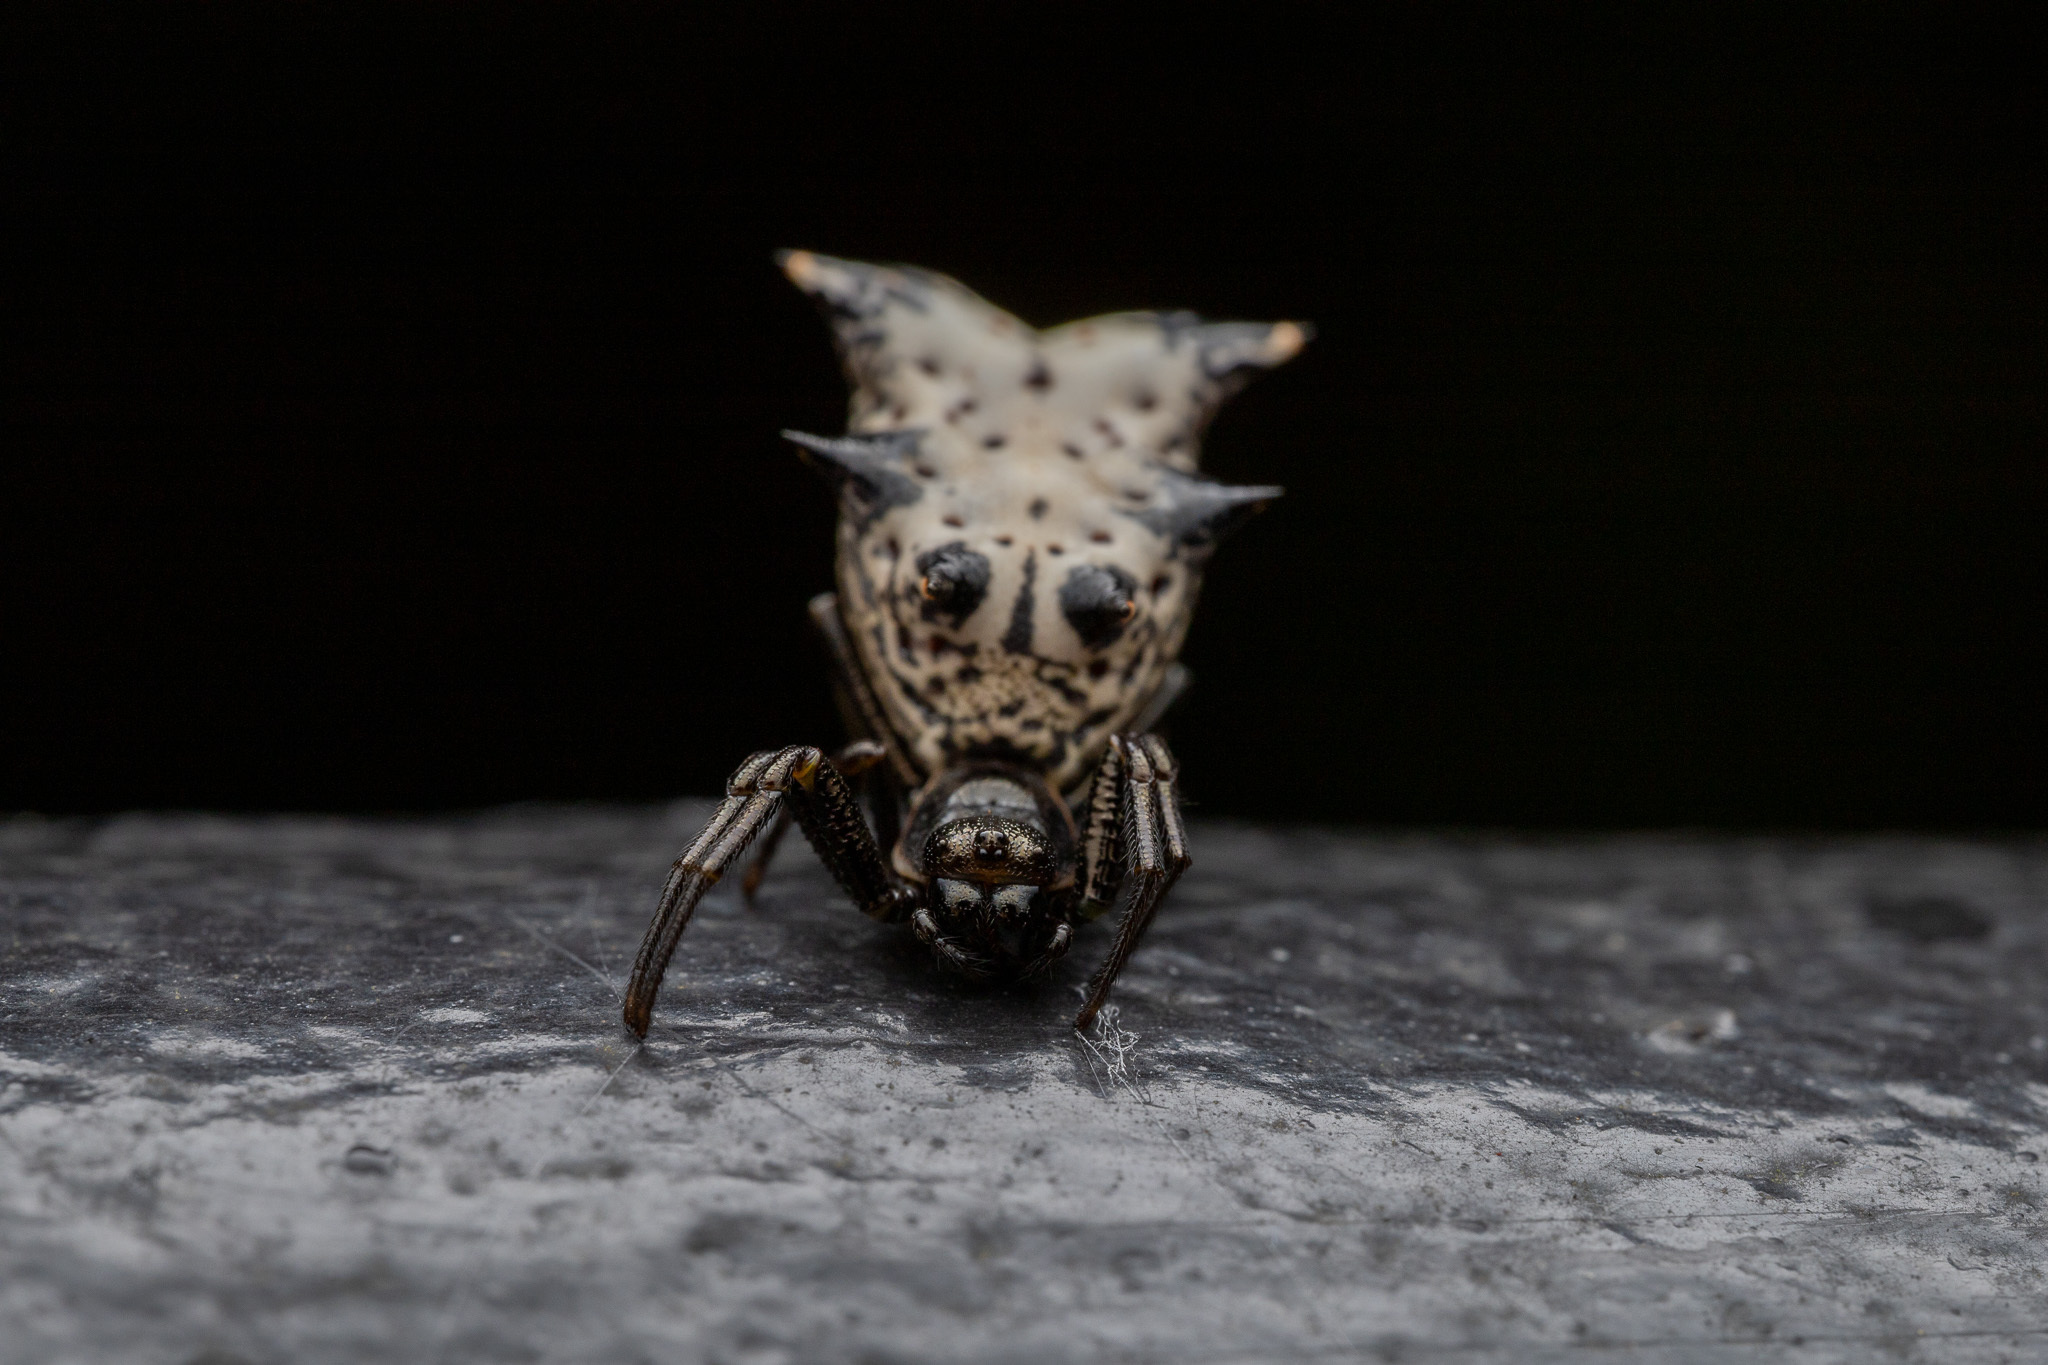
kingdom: Animalia
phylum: Arthropoda
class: Arachnida
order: Araneae
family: Araneidae
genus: Micrathena
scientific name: Micrathena gracilis
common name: Orb weavers
